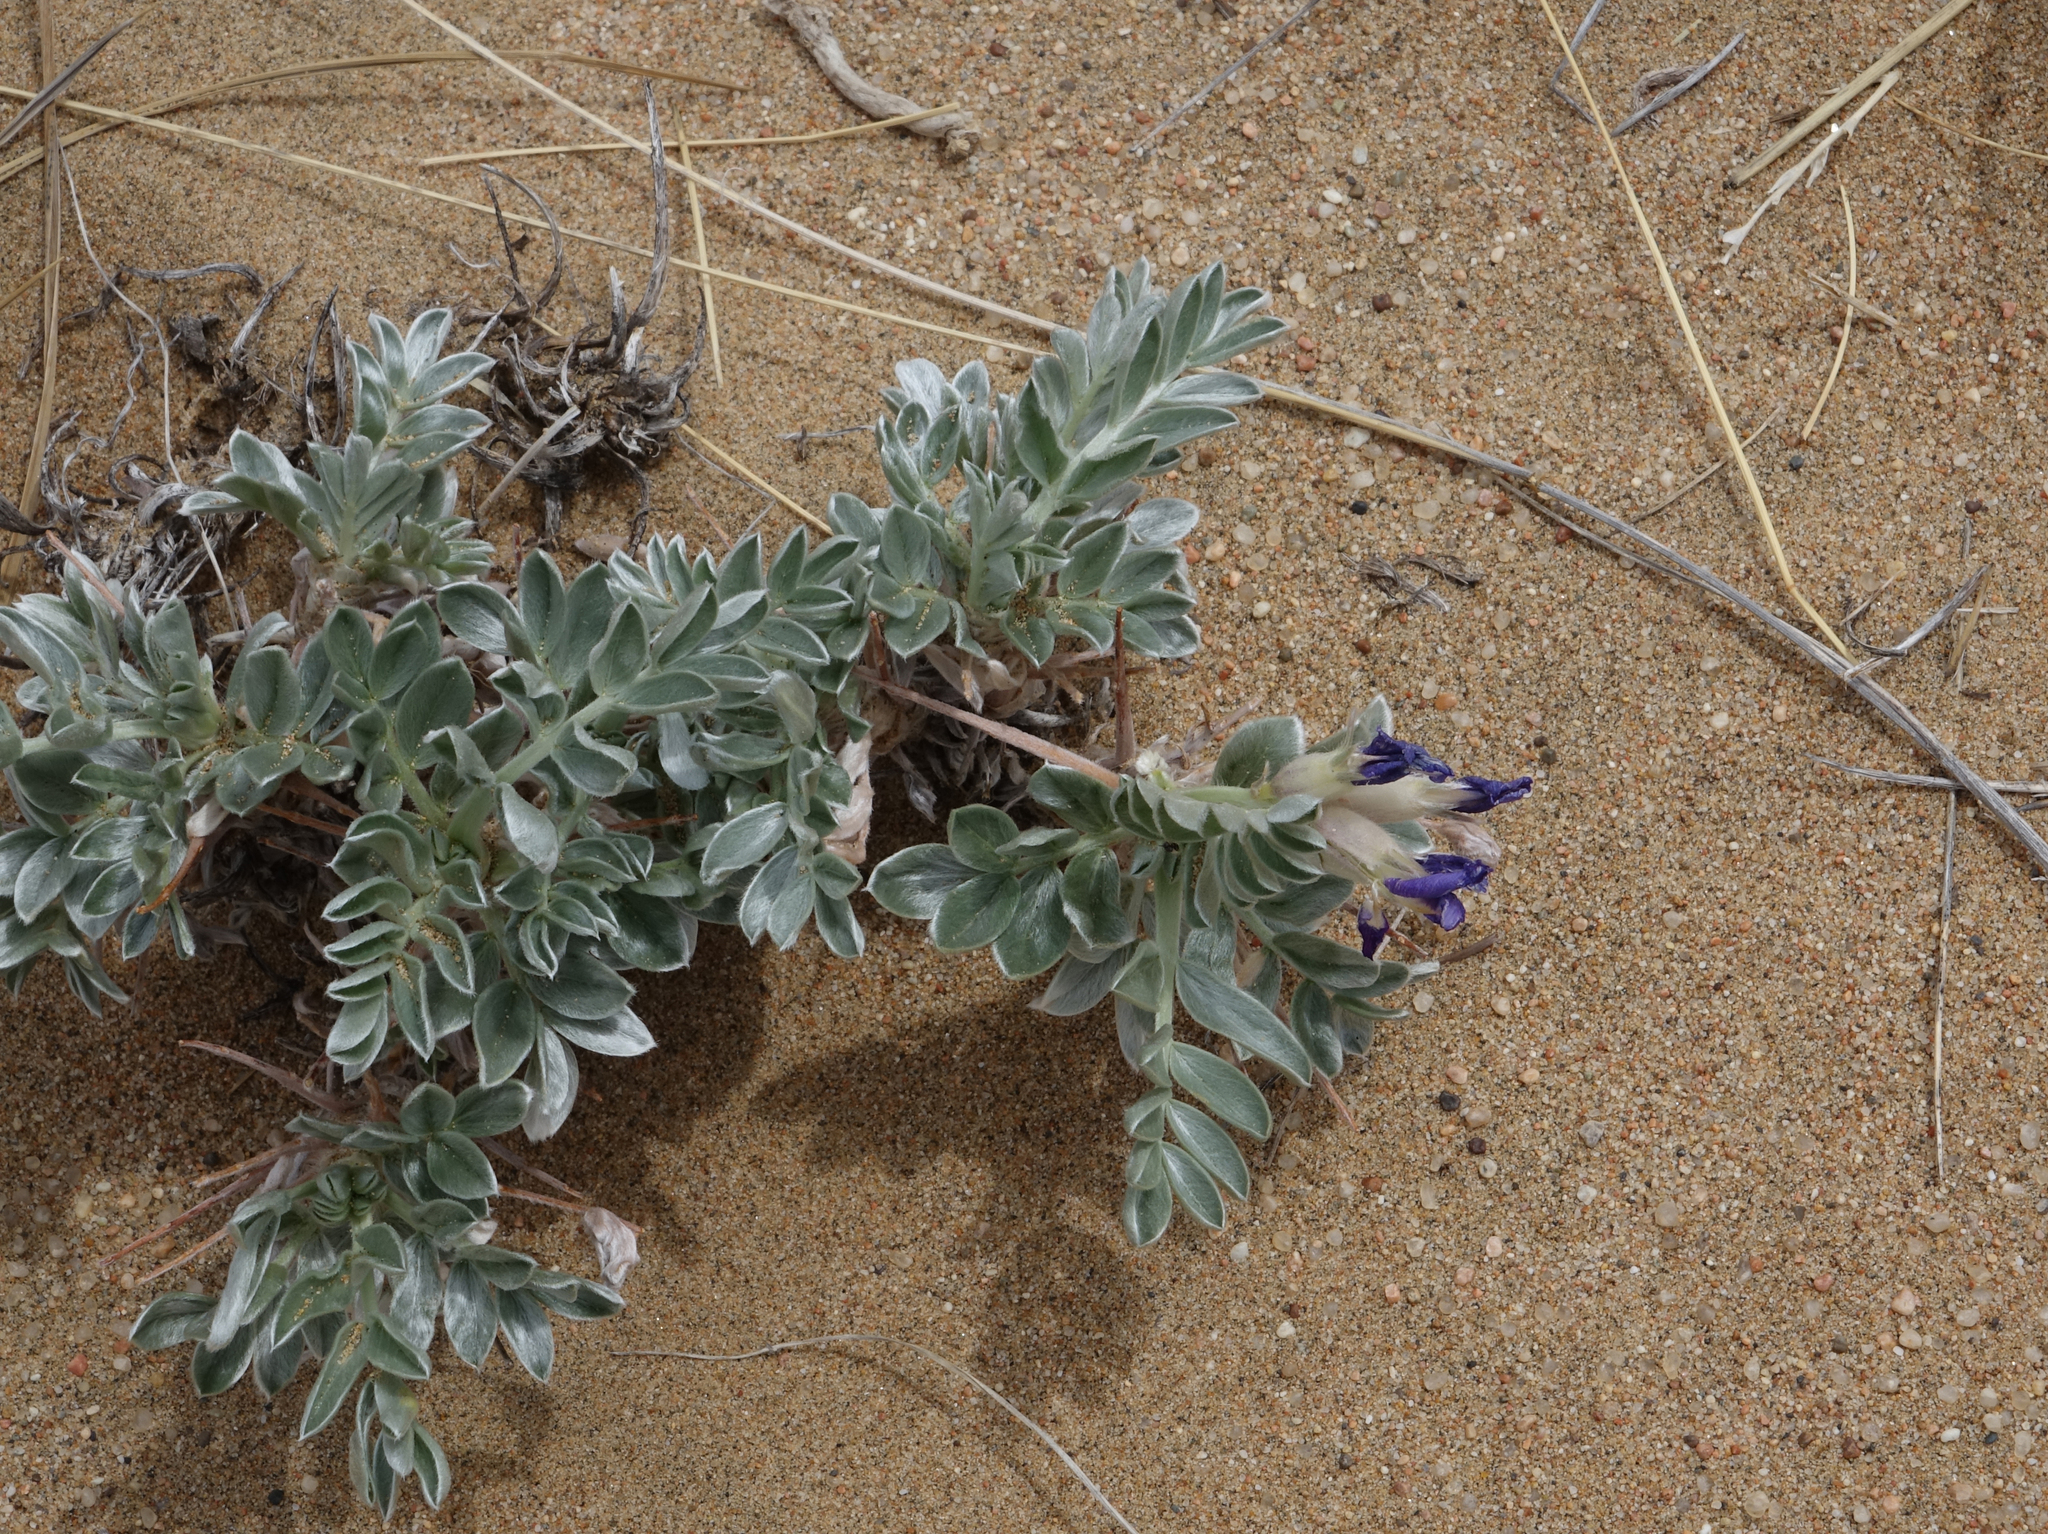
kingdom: Plantae
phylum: Tracheophyta
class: Magnoliopsida
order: Fabales
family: Fabaceae
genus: Oxytropis
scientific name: Oxytropis tragacanthoides
